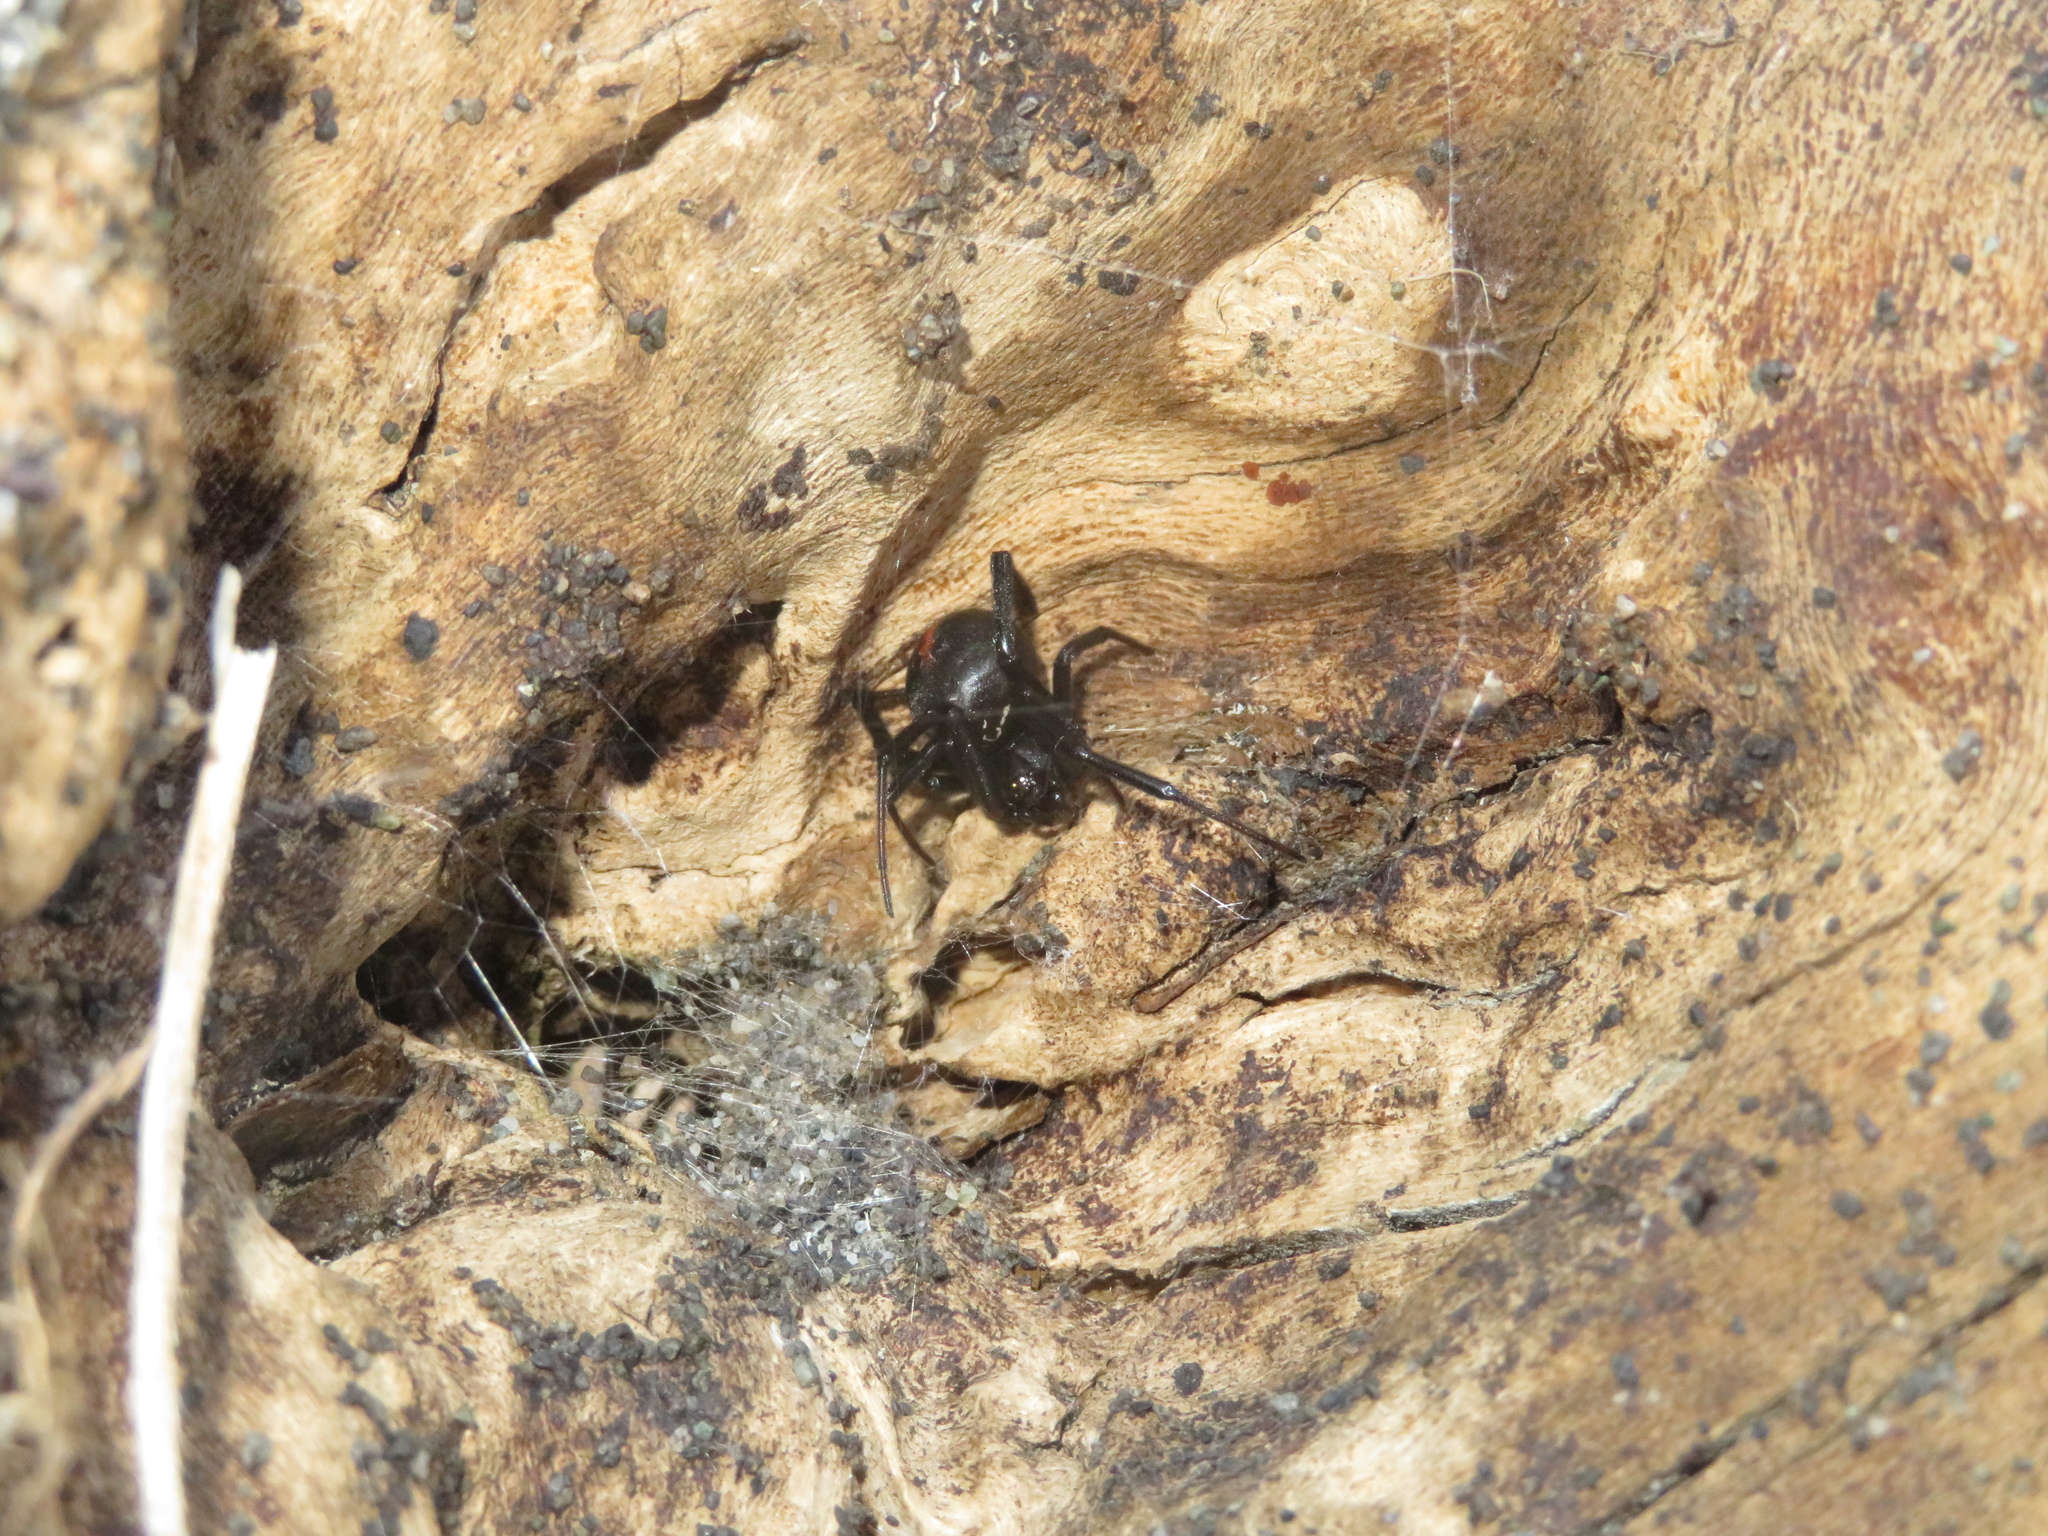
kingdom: Animalia
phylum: Arthropoda
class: Arachnida
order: Araneae
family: Theridiidae
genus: Latrodectus
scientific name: Latrodectus katipo
